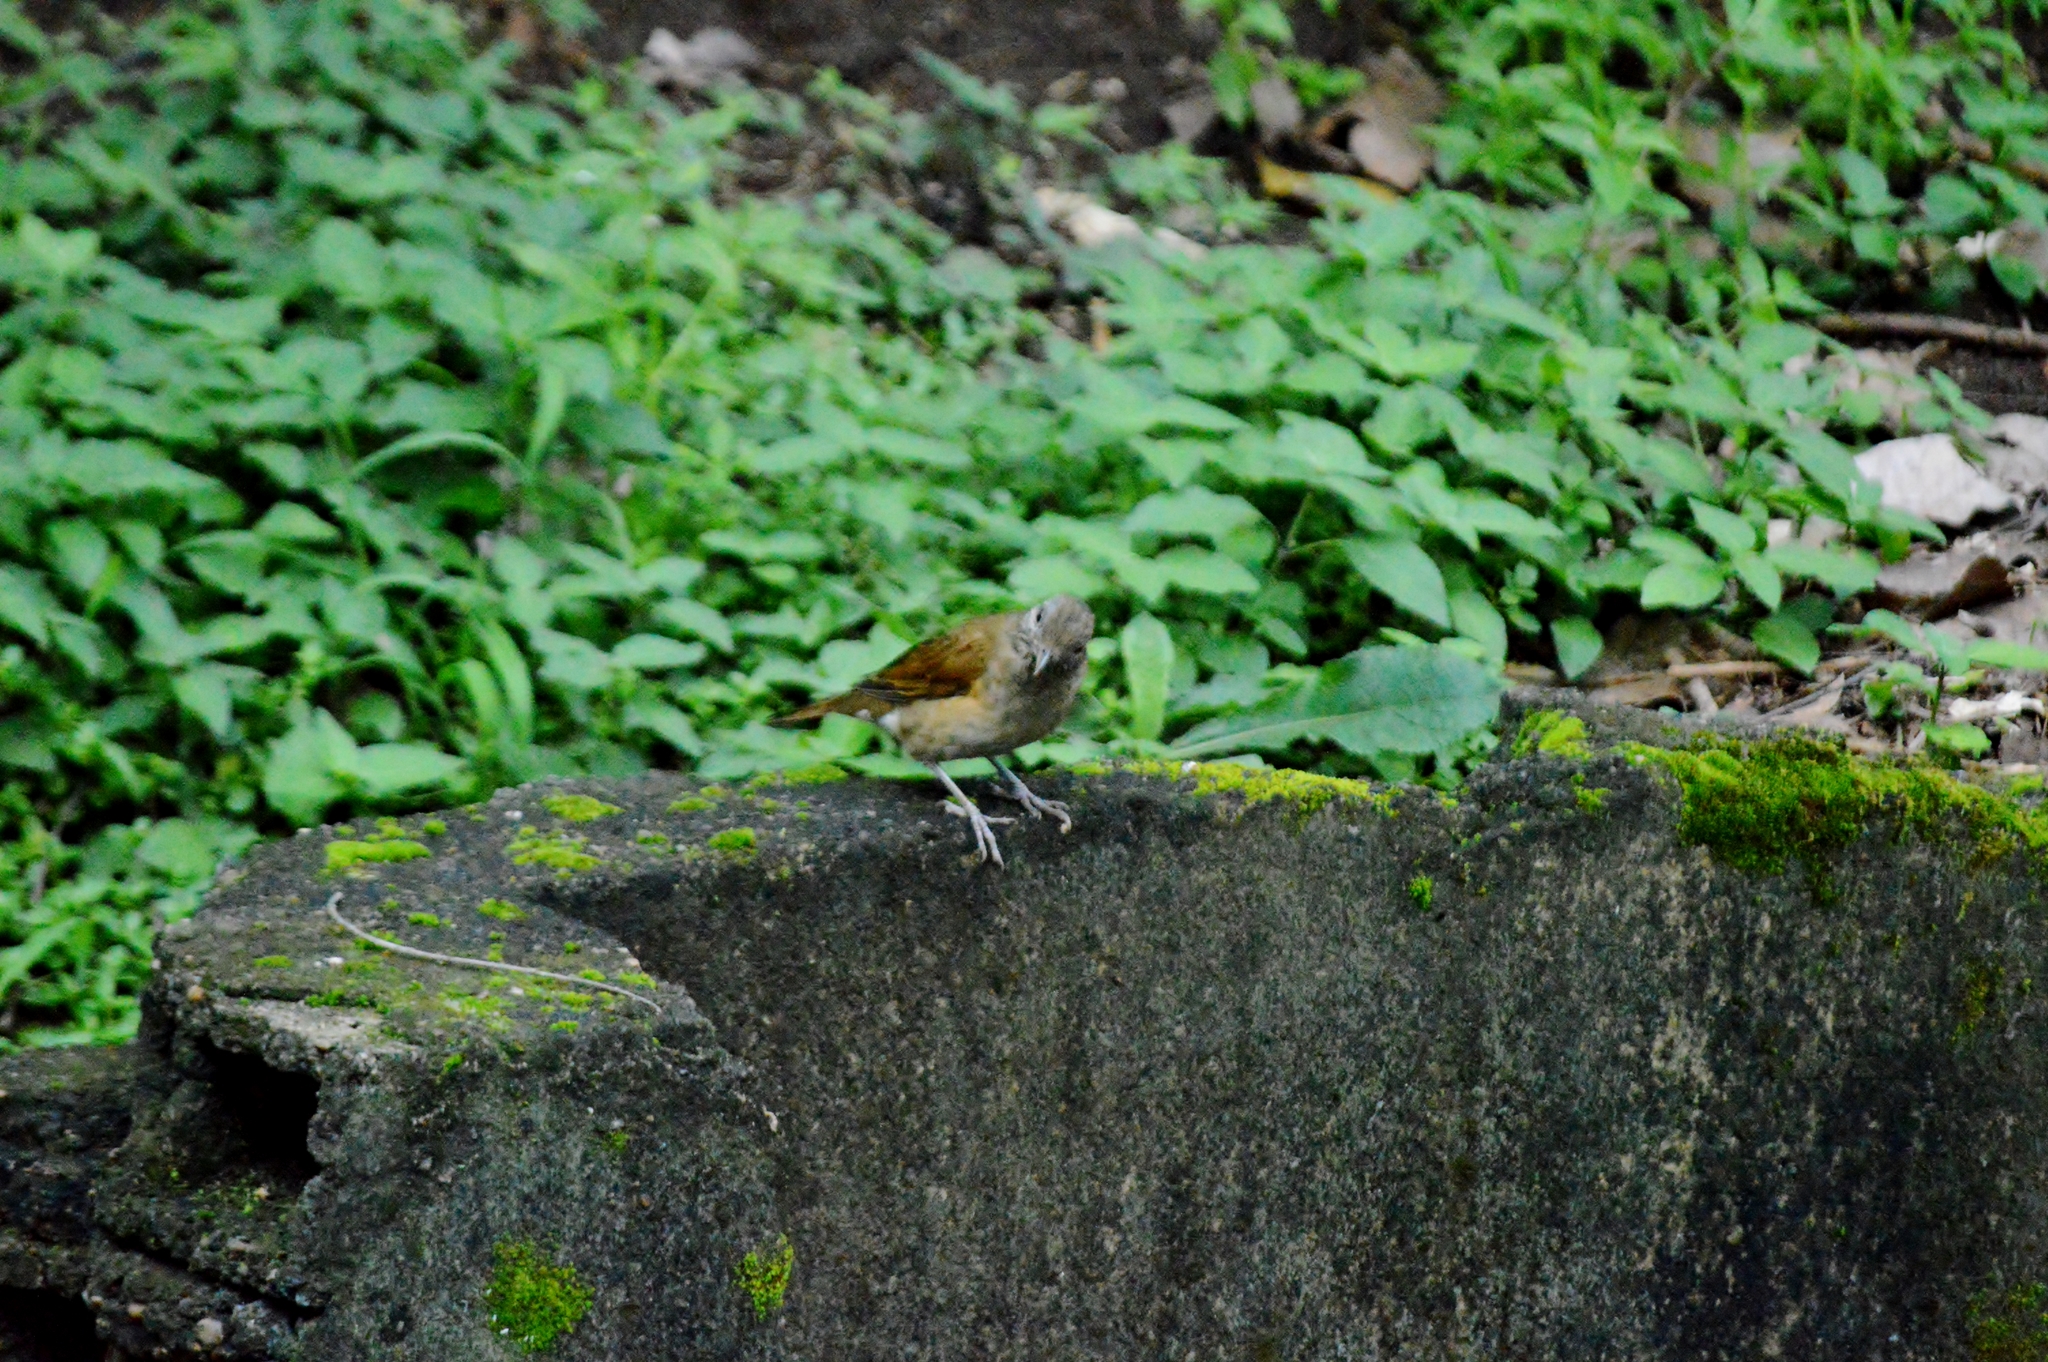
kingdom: Animalia
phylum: Chordata
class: Aves
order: Passeriformes
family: Turdidae
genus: Turdus
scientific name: Turdus leucomelas
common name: Pale-breasted thrush
